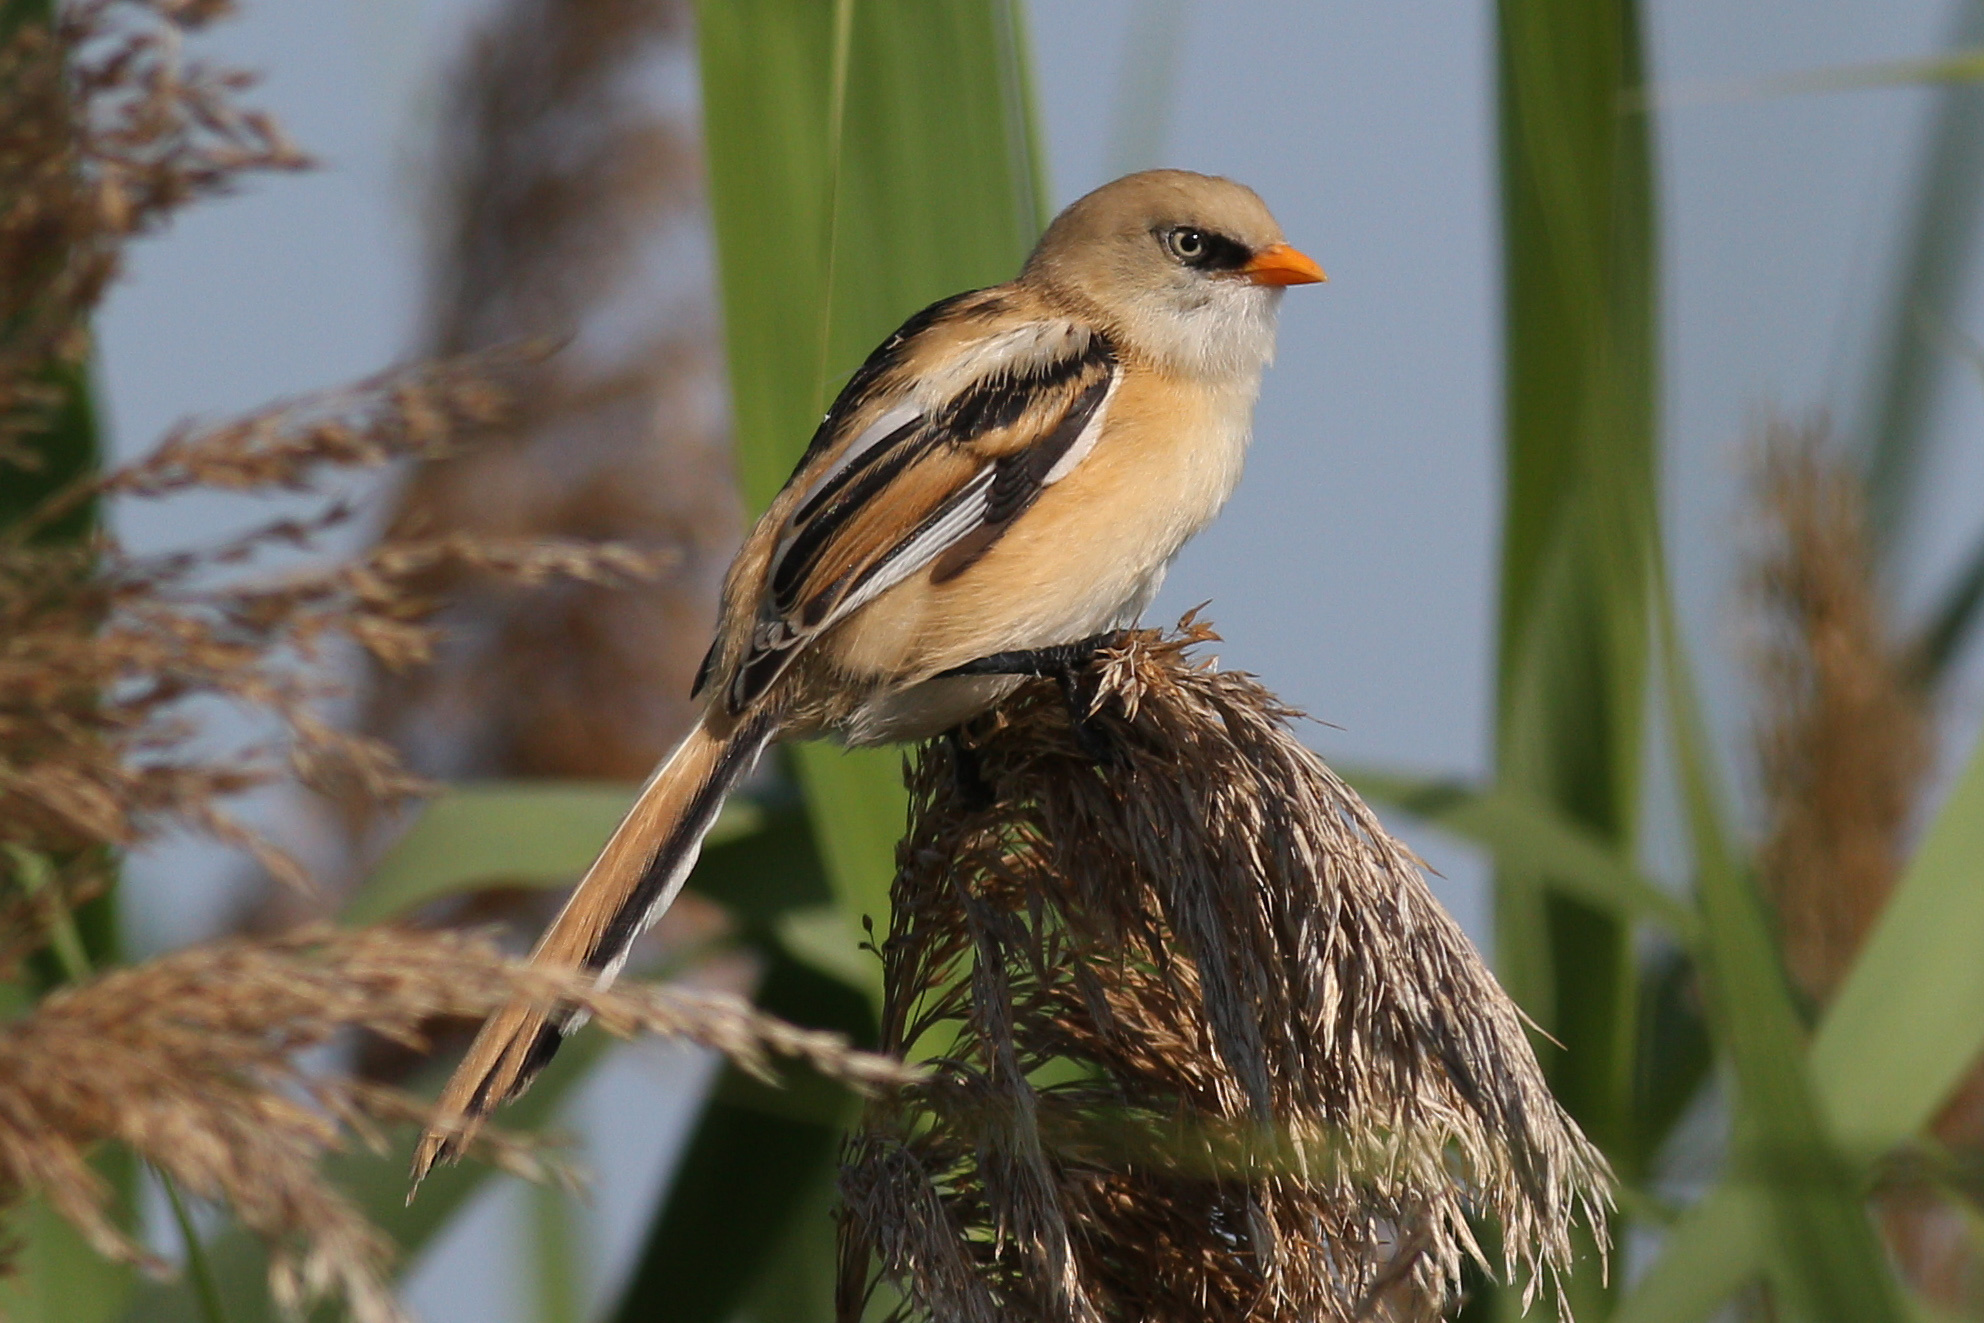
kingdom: Animalia
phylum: Chordata
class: Aves
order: Passeriformes
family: Panuridae
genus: Panurus
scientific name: Panurus biarmicus
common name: Bearded reedling
